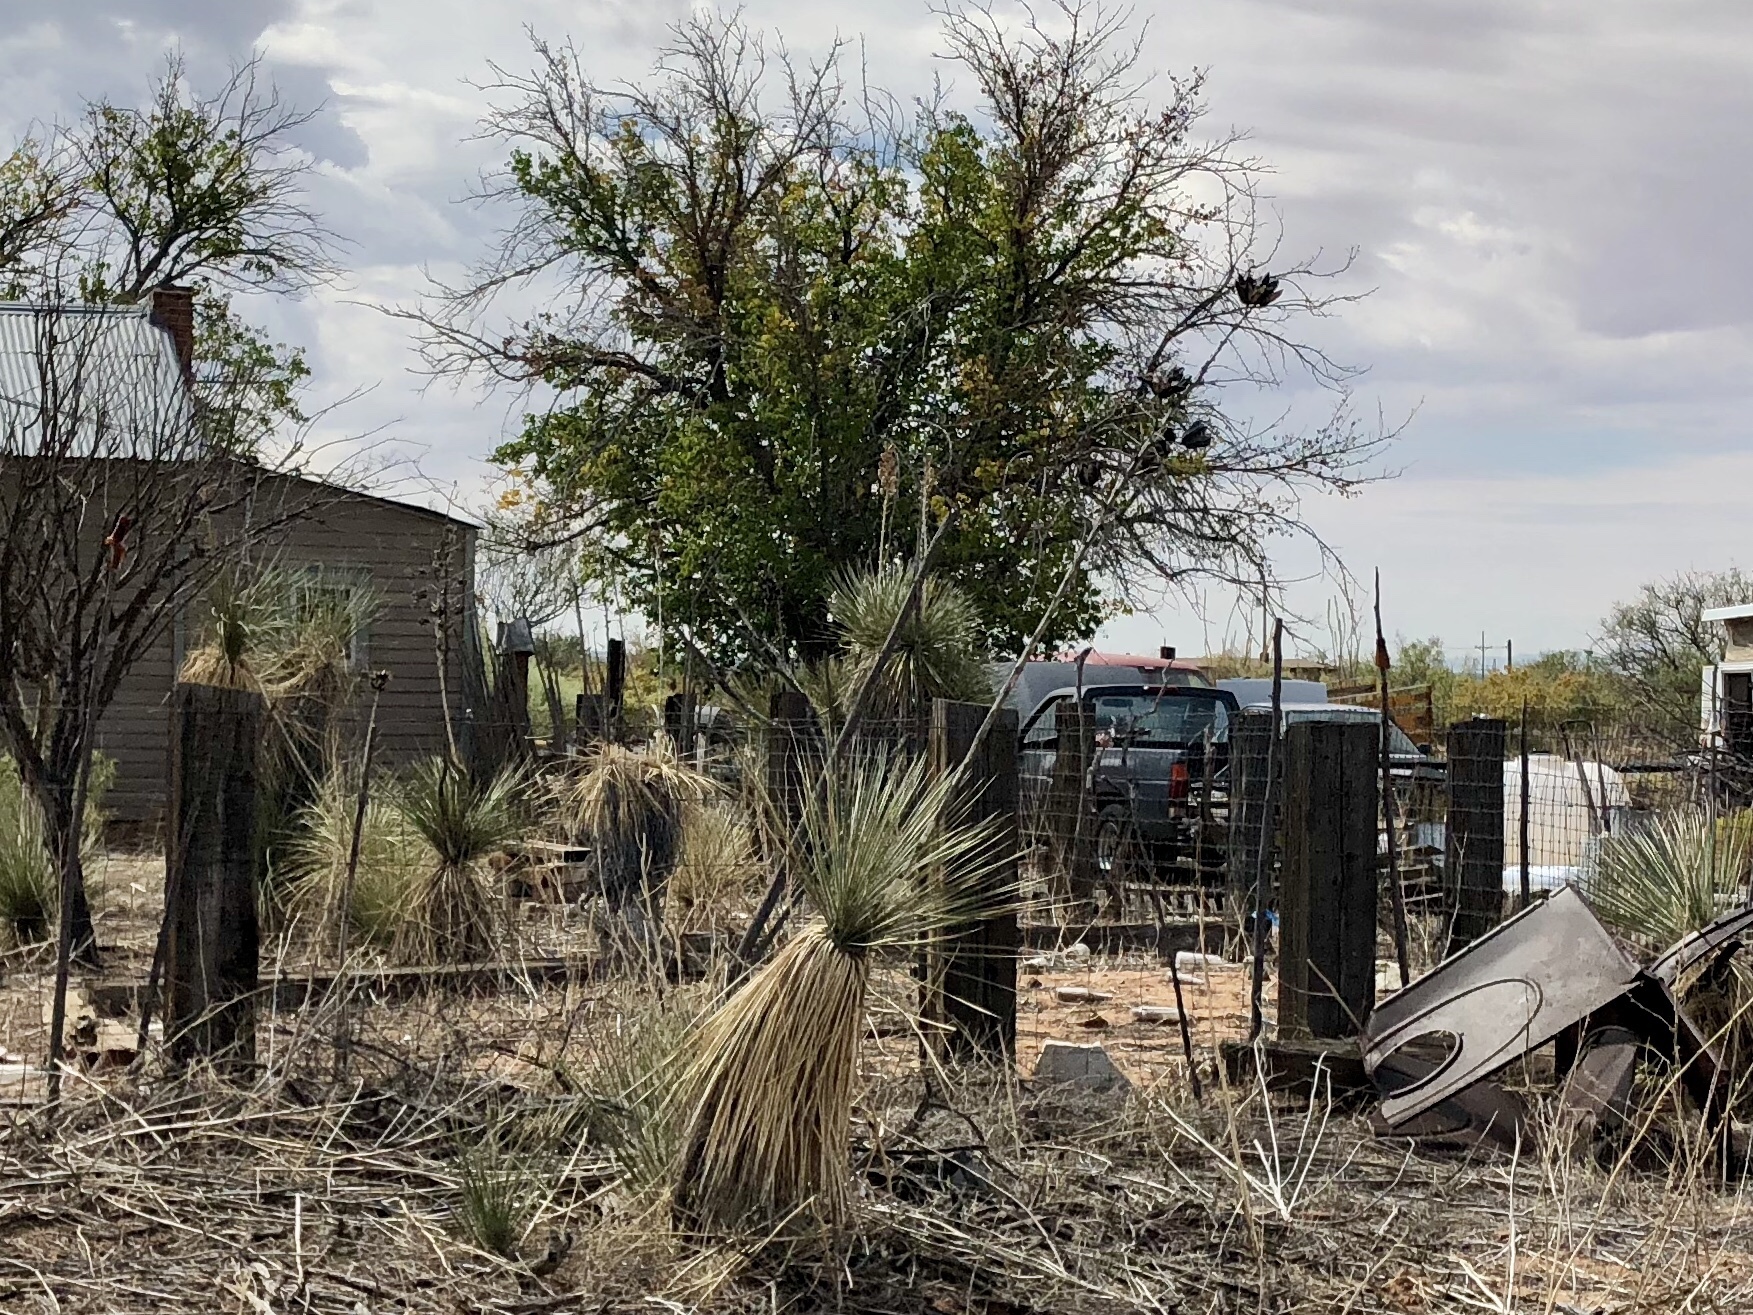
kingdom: Plantae
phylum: Tracheophyta
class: Liliopsida
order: Asparagales
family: Asparagaceae
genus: Yucca
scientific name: Yucca elata
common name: Palmella
